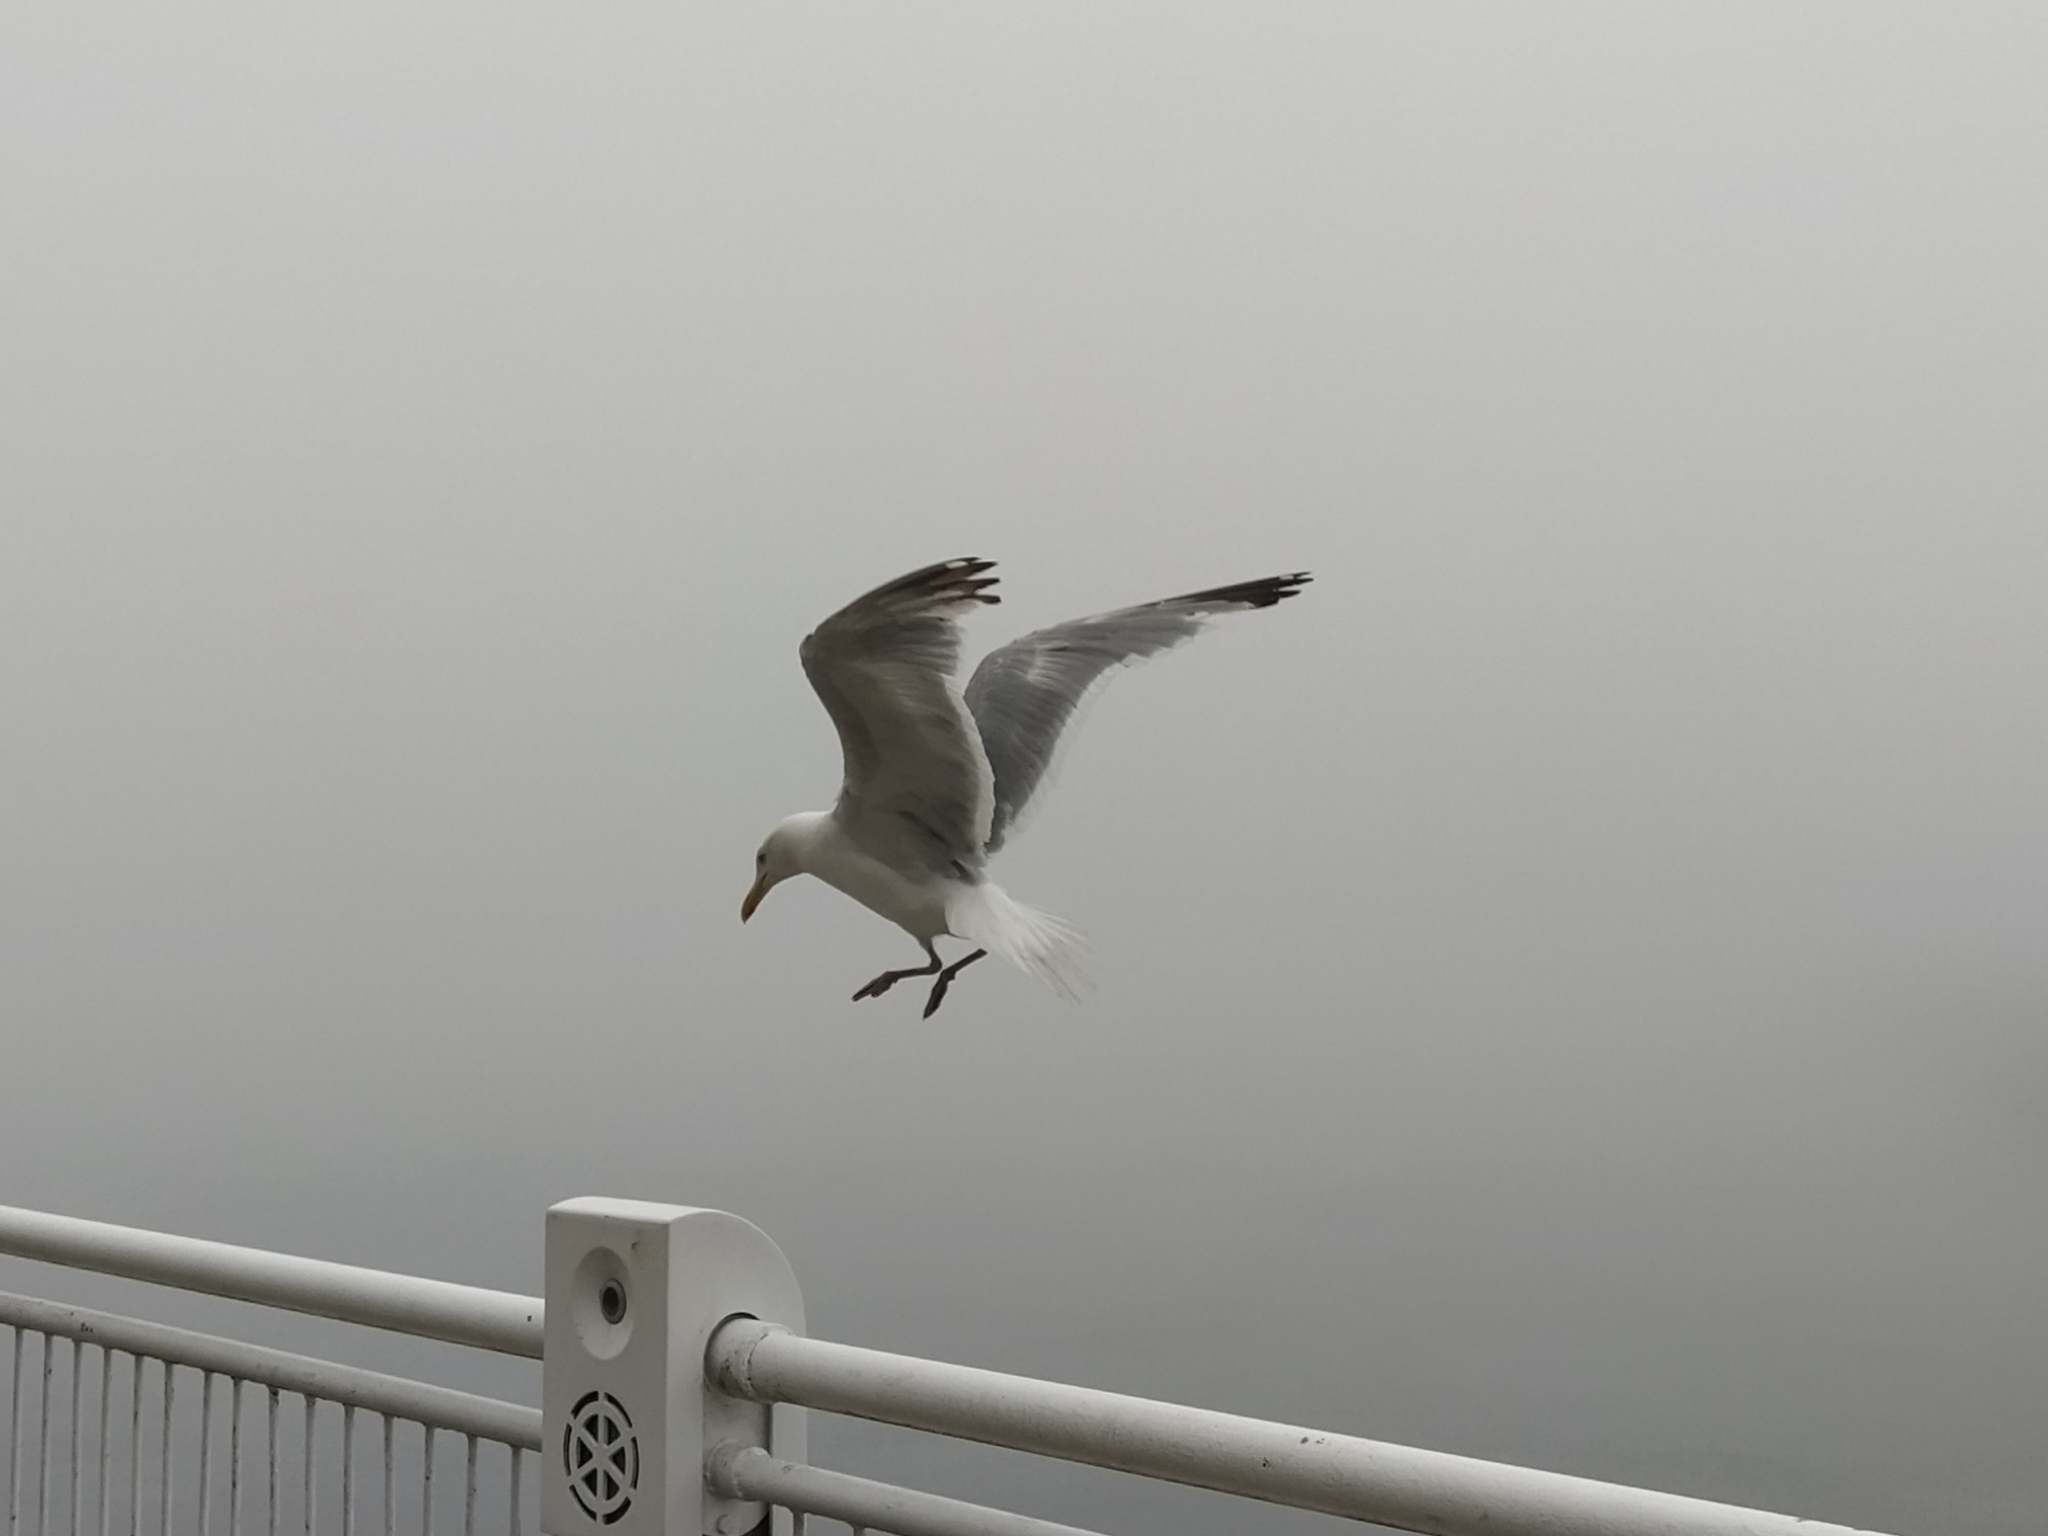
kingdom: Animalia
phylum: Chordata
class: Aves
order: Charadriiformes
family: Laridae
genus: Larus
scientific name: Larus argentatus
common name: Herring gull
